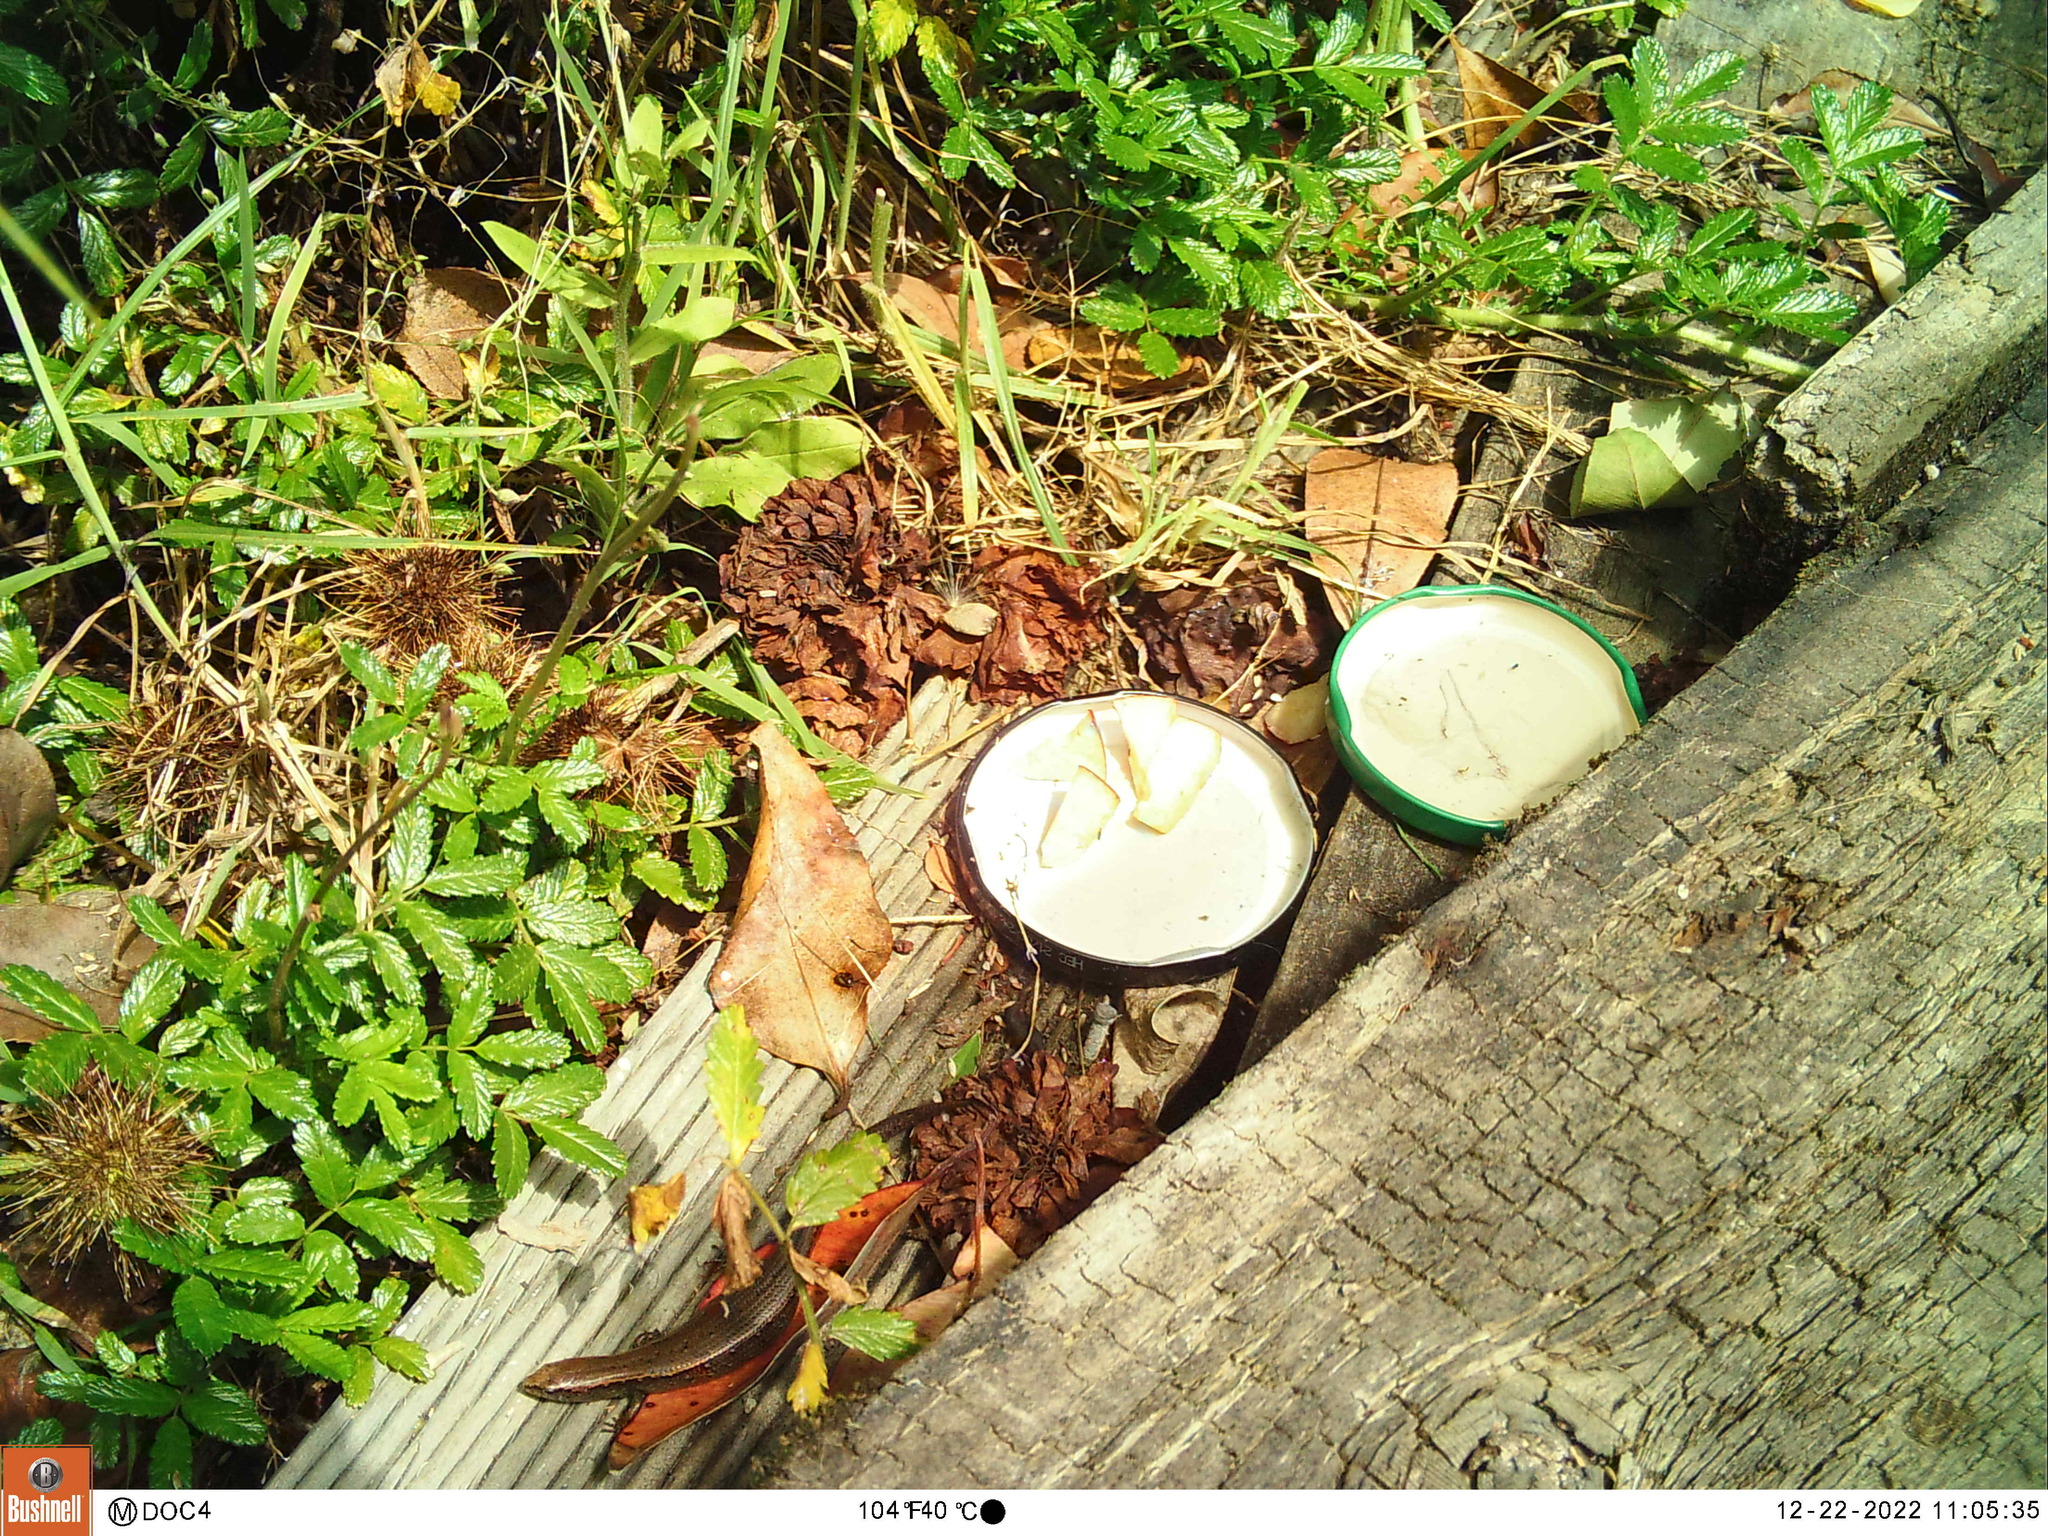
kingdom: Animalia
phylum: Chordata
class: Squamata
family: Scincidae
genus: Oligosoma
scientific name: Oligosoma aeneum
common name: Copper skink
